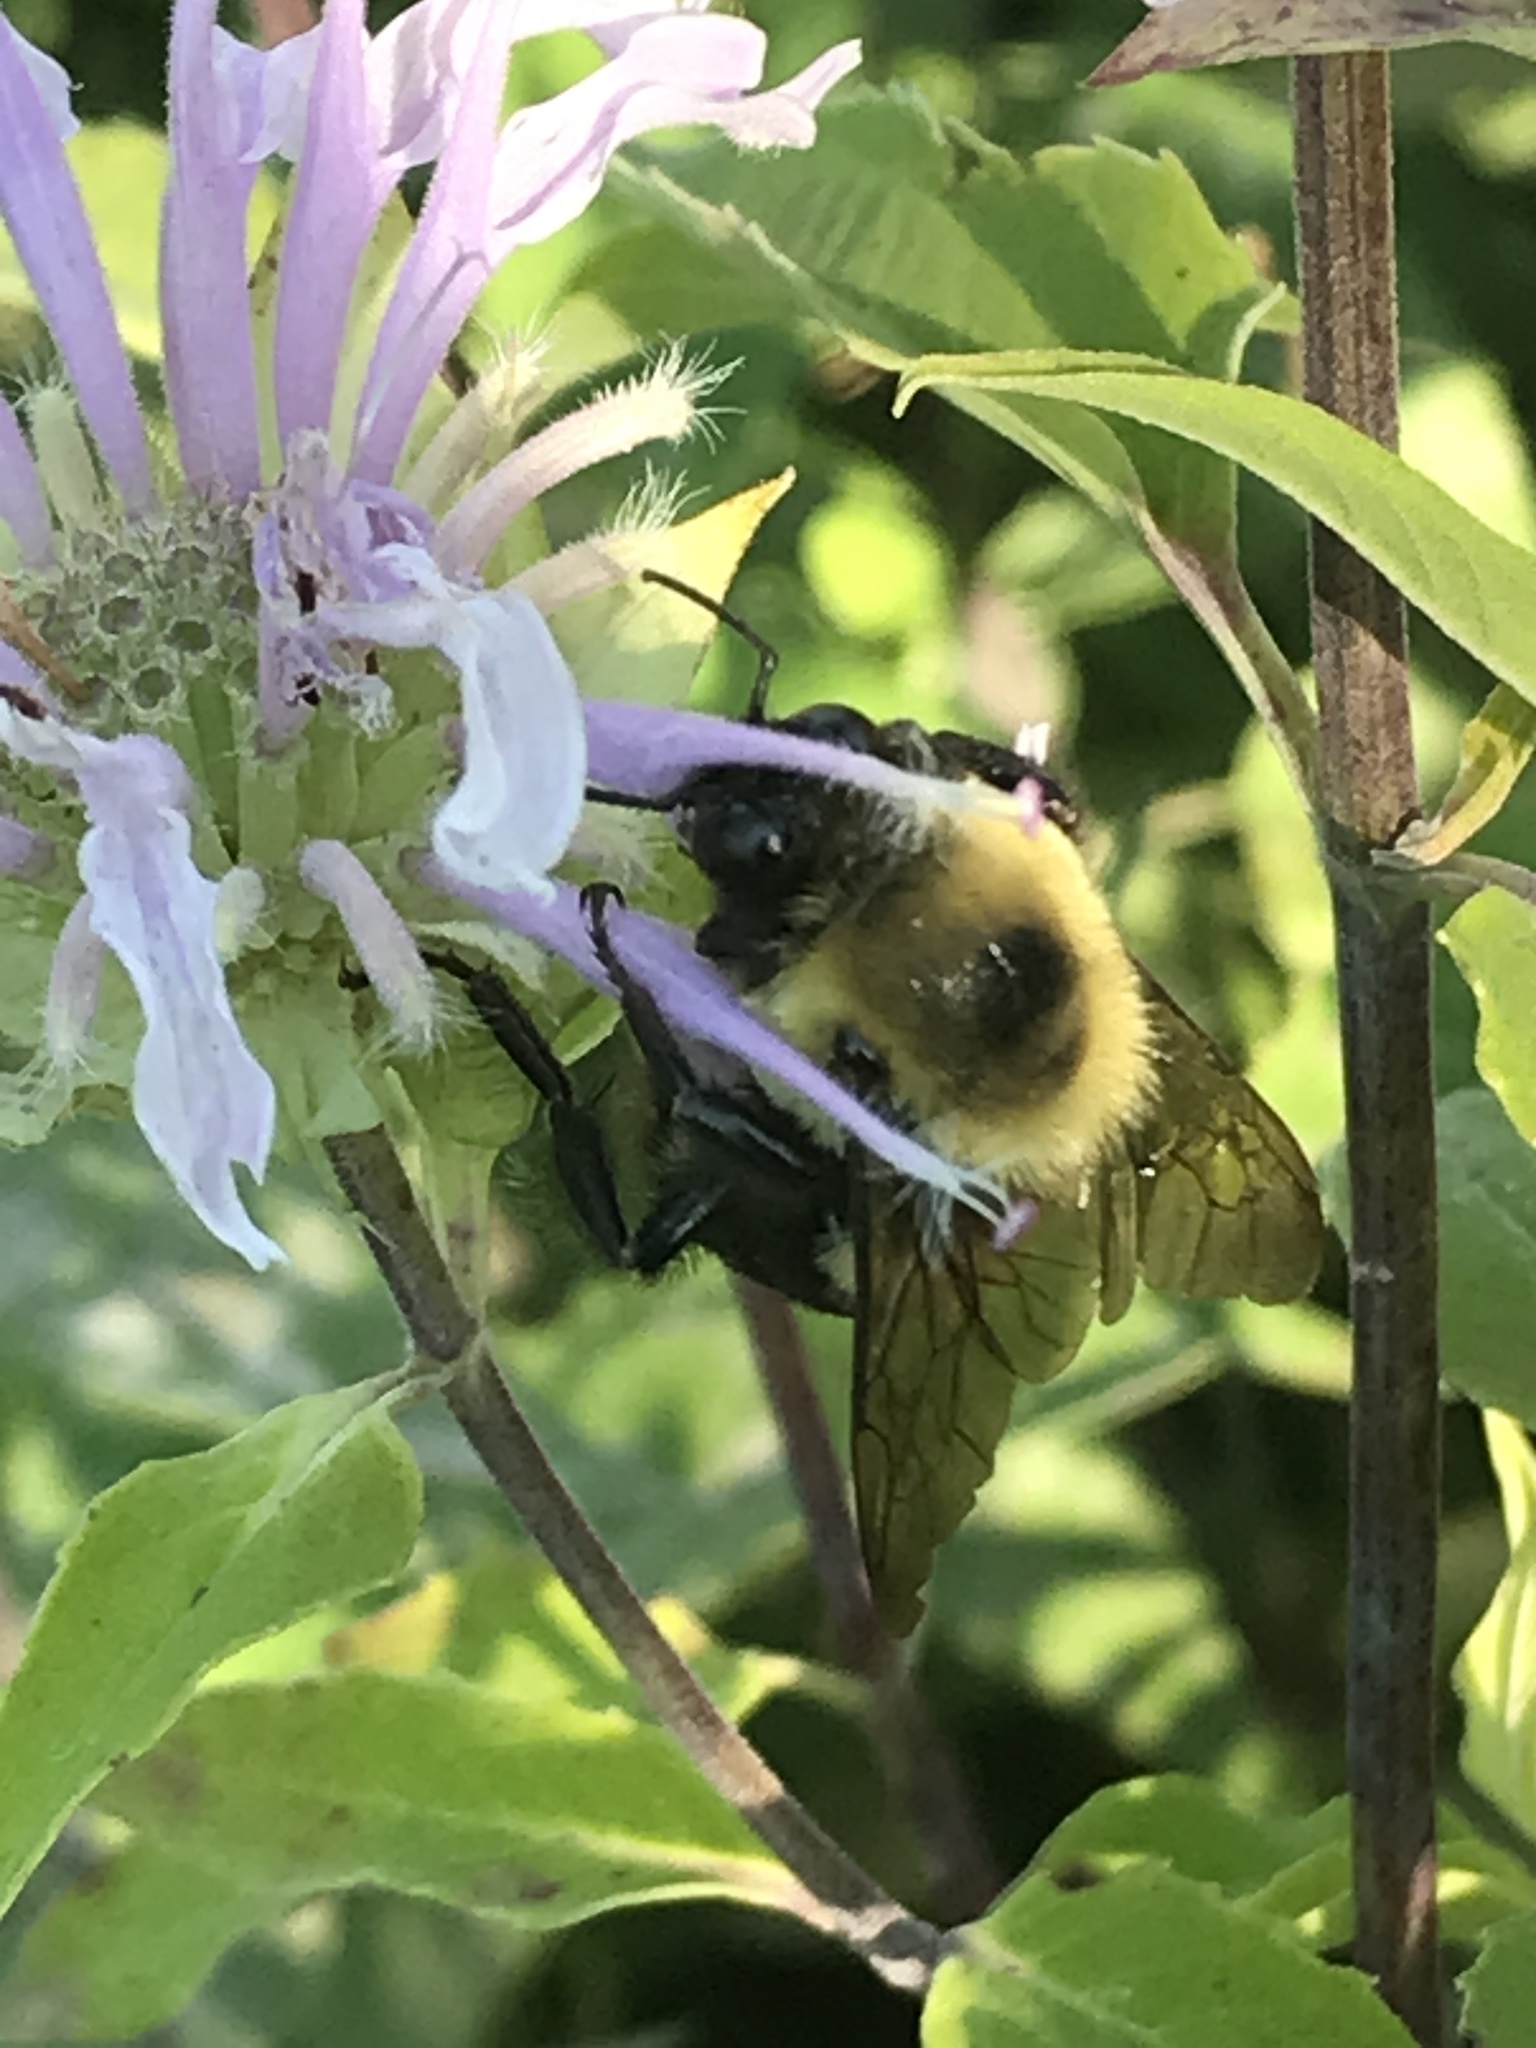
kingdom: Animalia
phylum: Arthropoda
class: Insecta
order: Hymenoptera
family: Apidae
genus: Bombus
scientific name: Bombus griseocollis
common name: Brown-belted bumble bee
